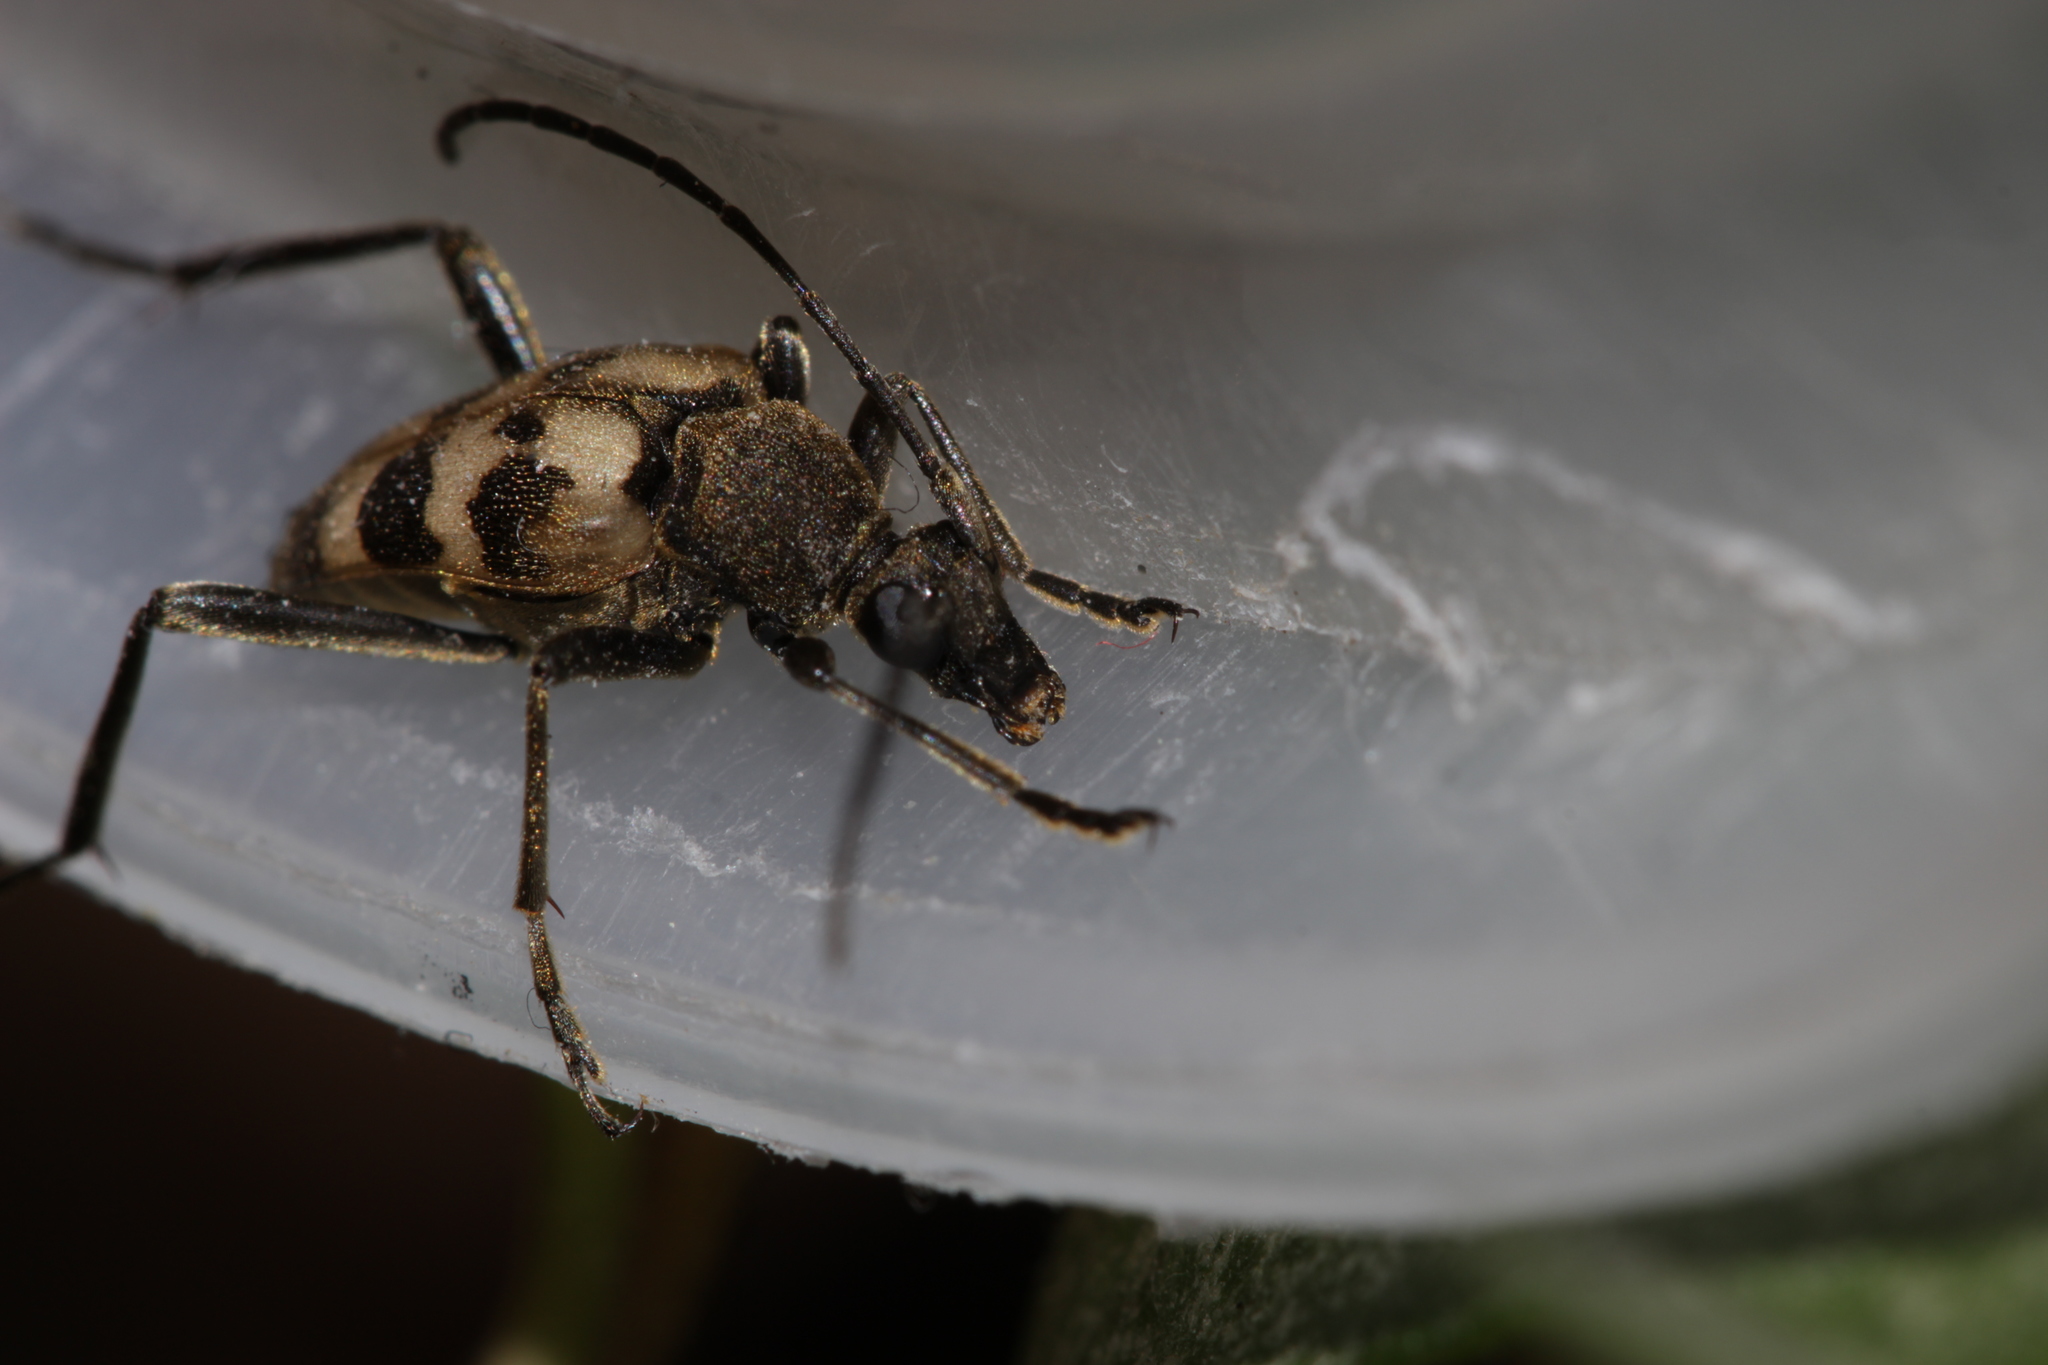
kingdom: Animalia
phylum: Arthropoda
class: Insecta
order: Coleoptera
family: Cerambycidae
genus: Pachytodes
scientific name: Pachytodes cerambyciformis
